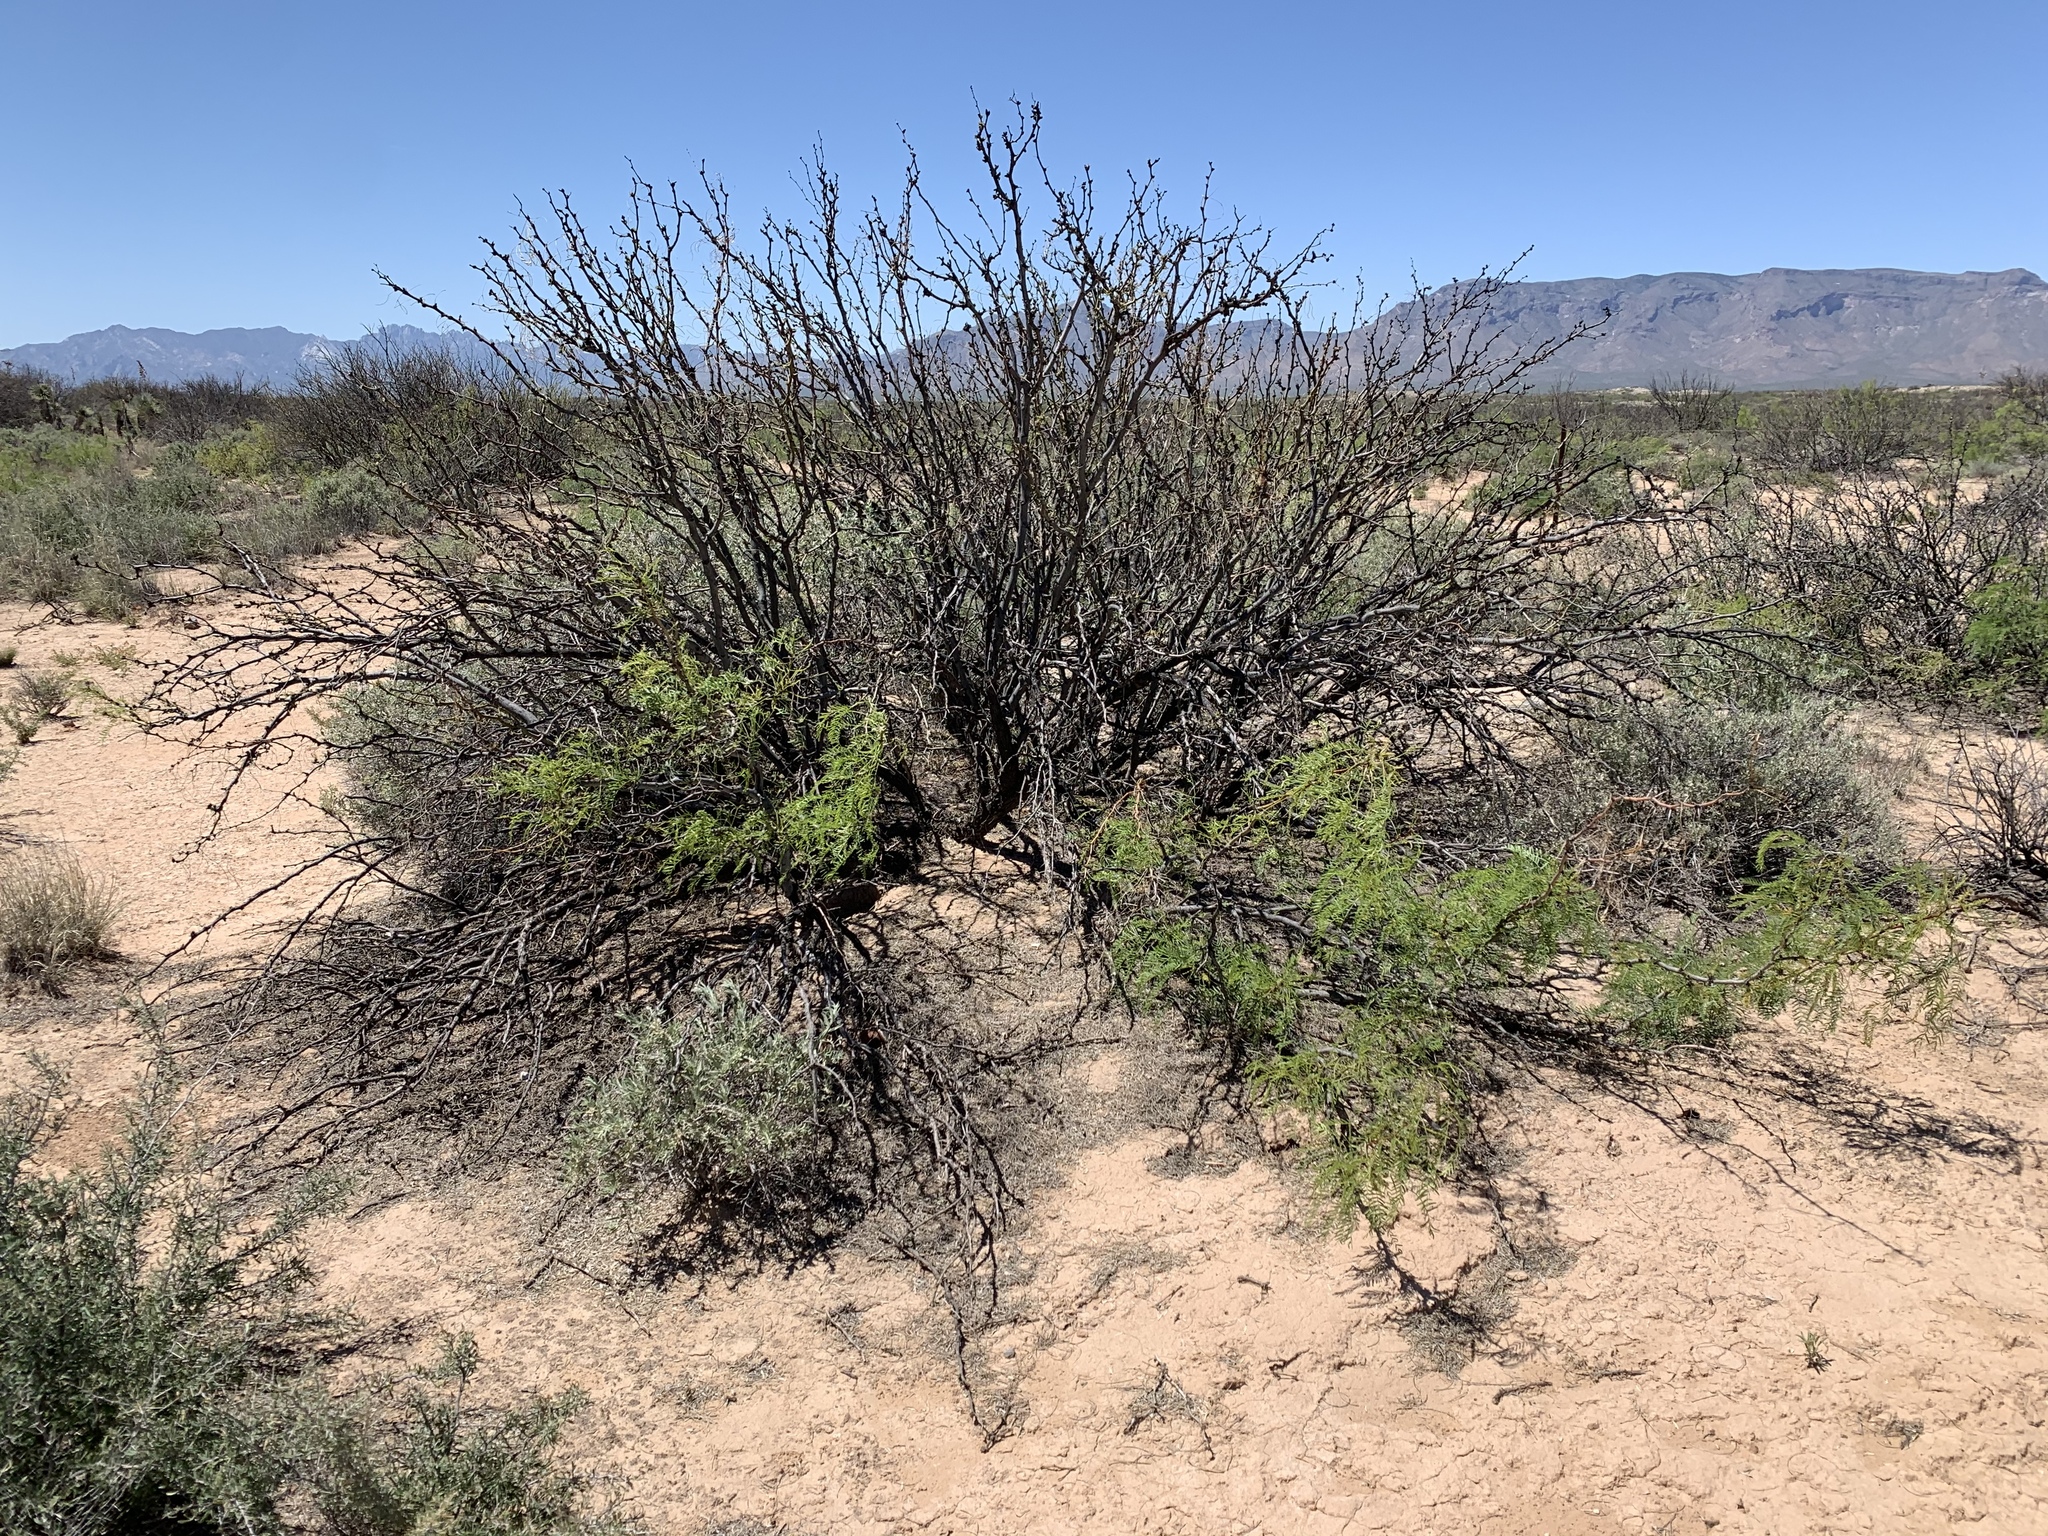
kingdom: Plantae
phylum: Tracheophyta
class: Magnoliopsida
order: Fabales
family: Fabaceae
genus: Prosopis
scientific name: Prosopis glandulosa
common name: Honey mesquite
